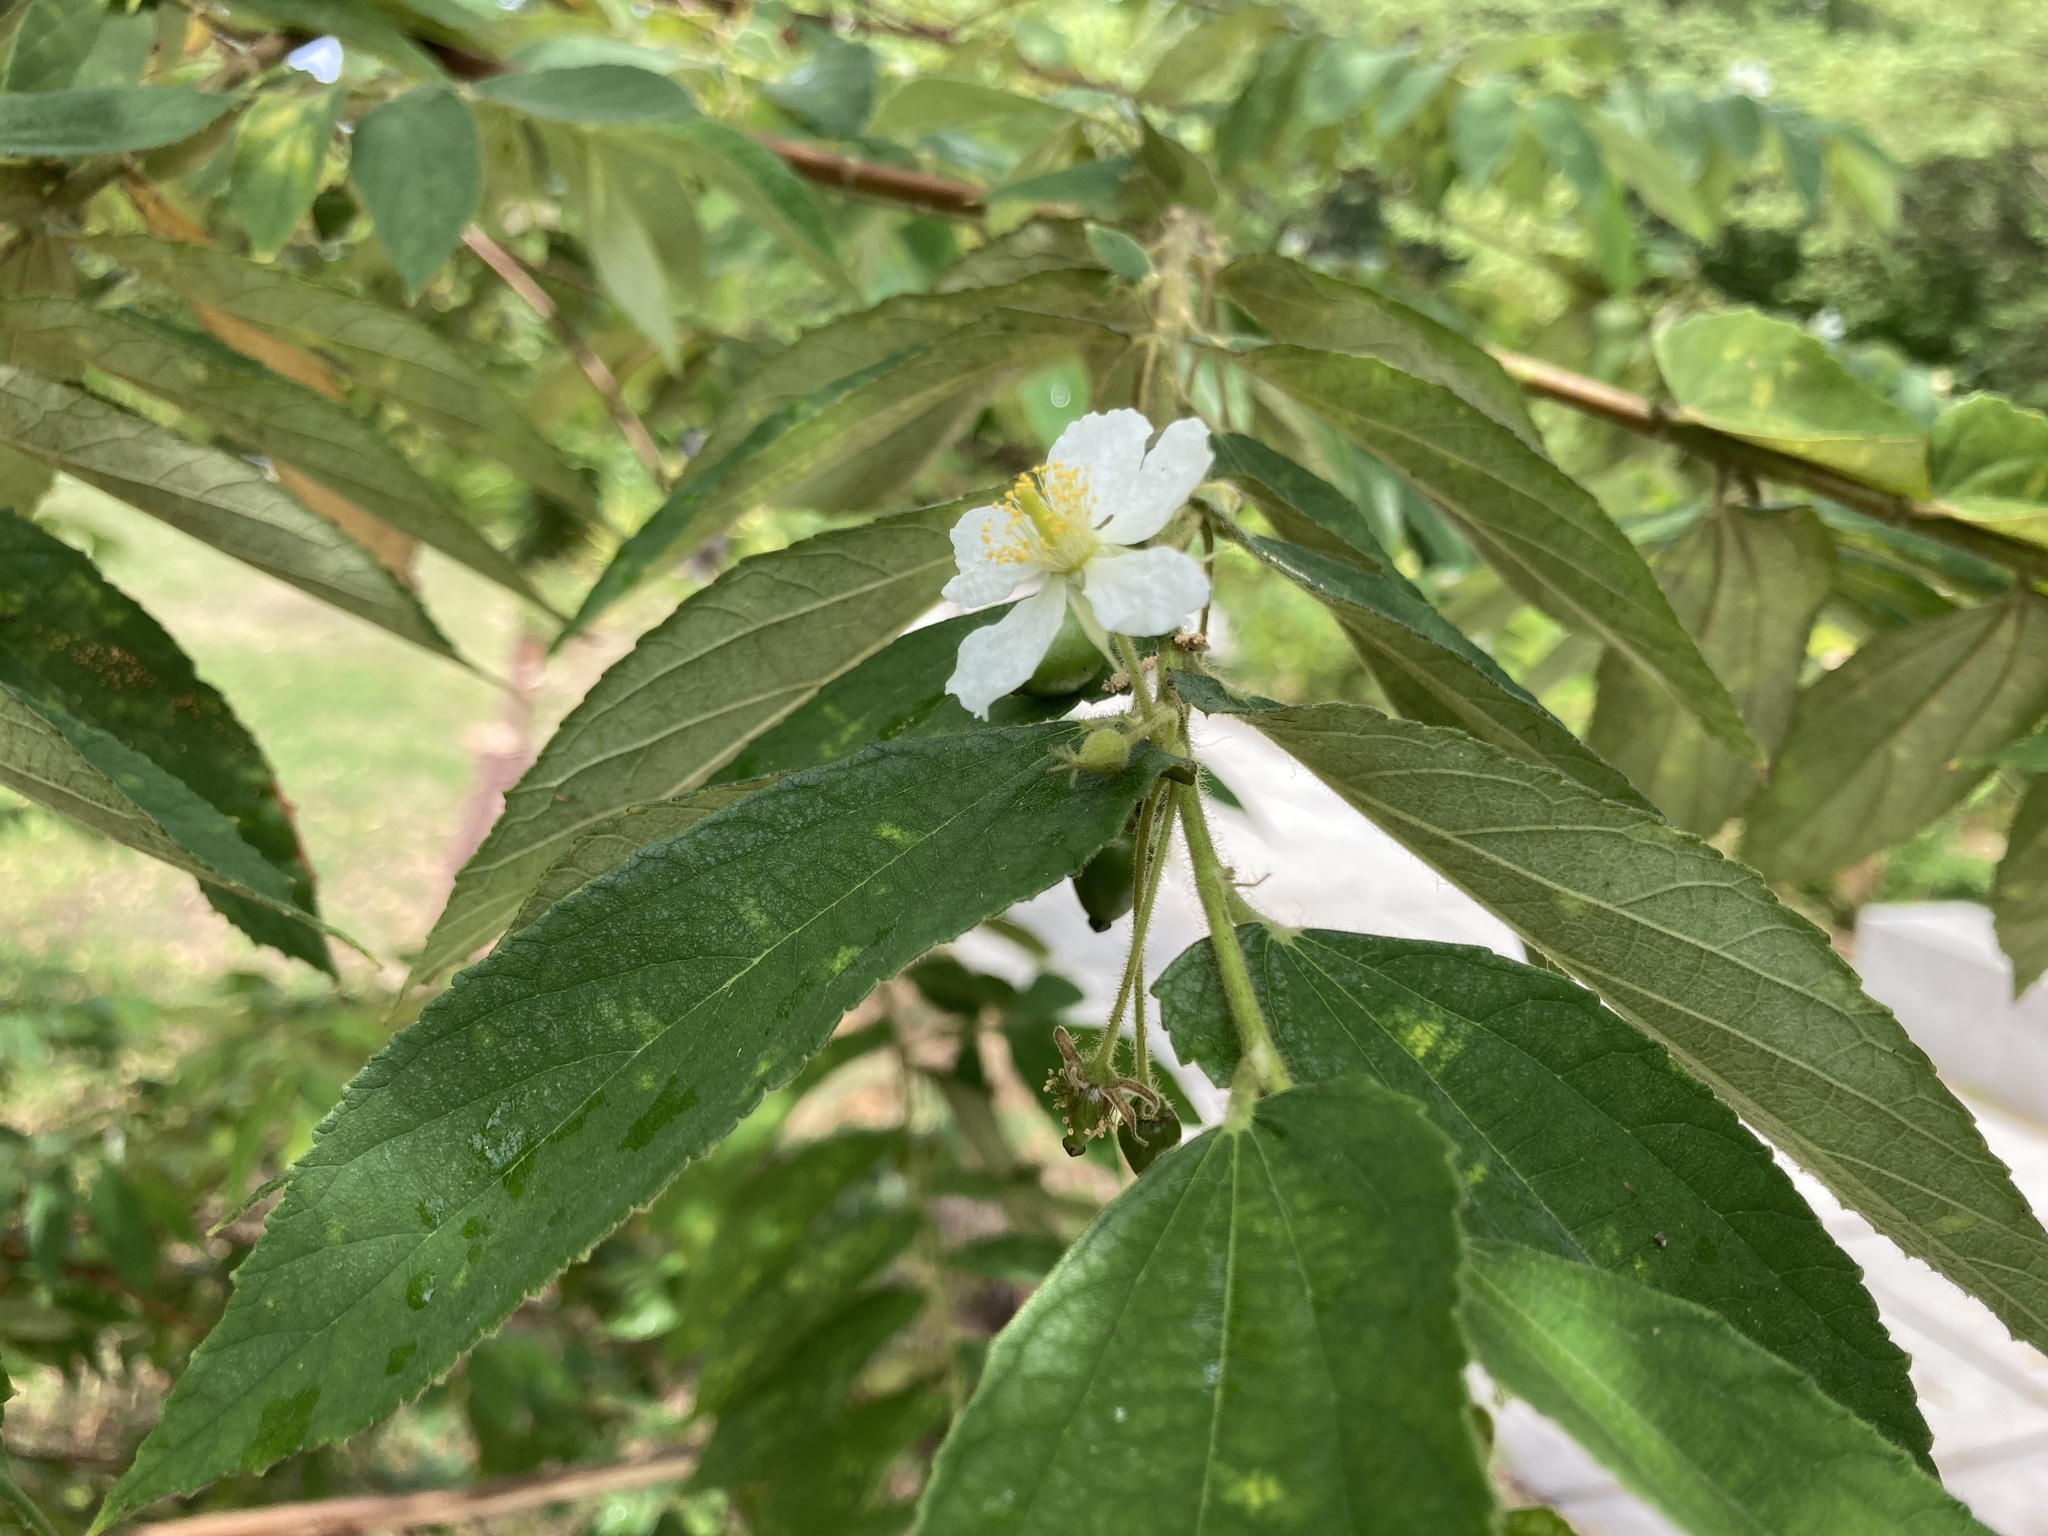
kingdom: Plantae
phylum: Tracheophyta
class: Magnoliopsida
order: Malvales
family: Muntingiaceae
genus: Muntingia
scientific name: Muntingia calabura
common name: Strawberrytree
